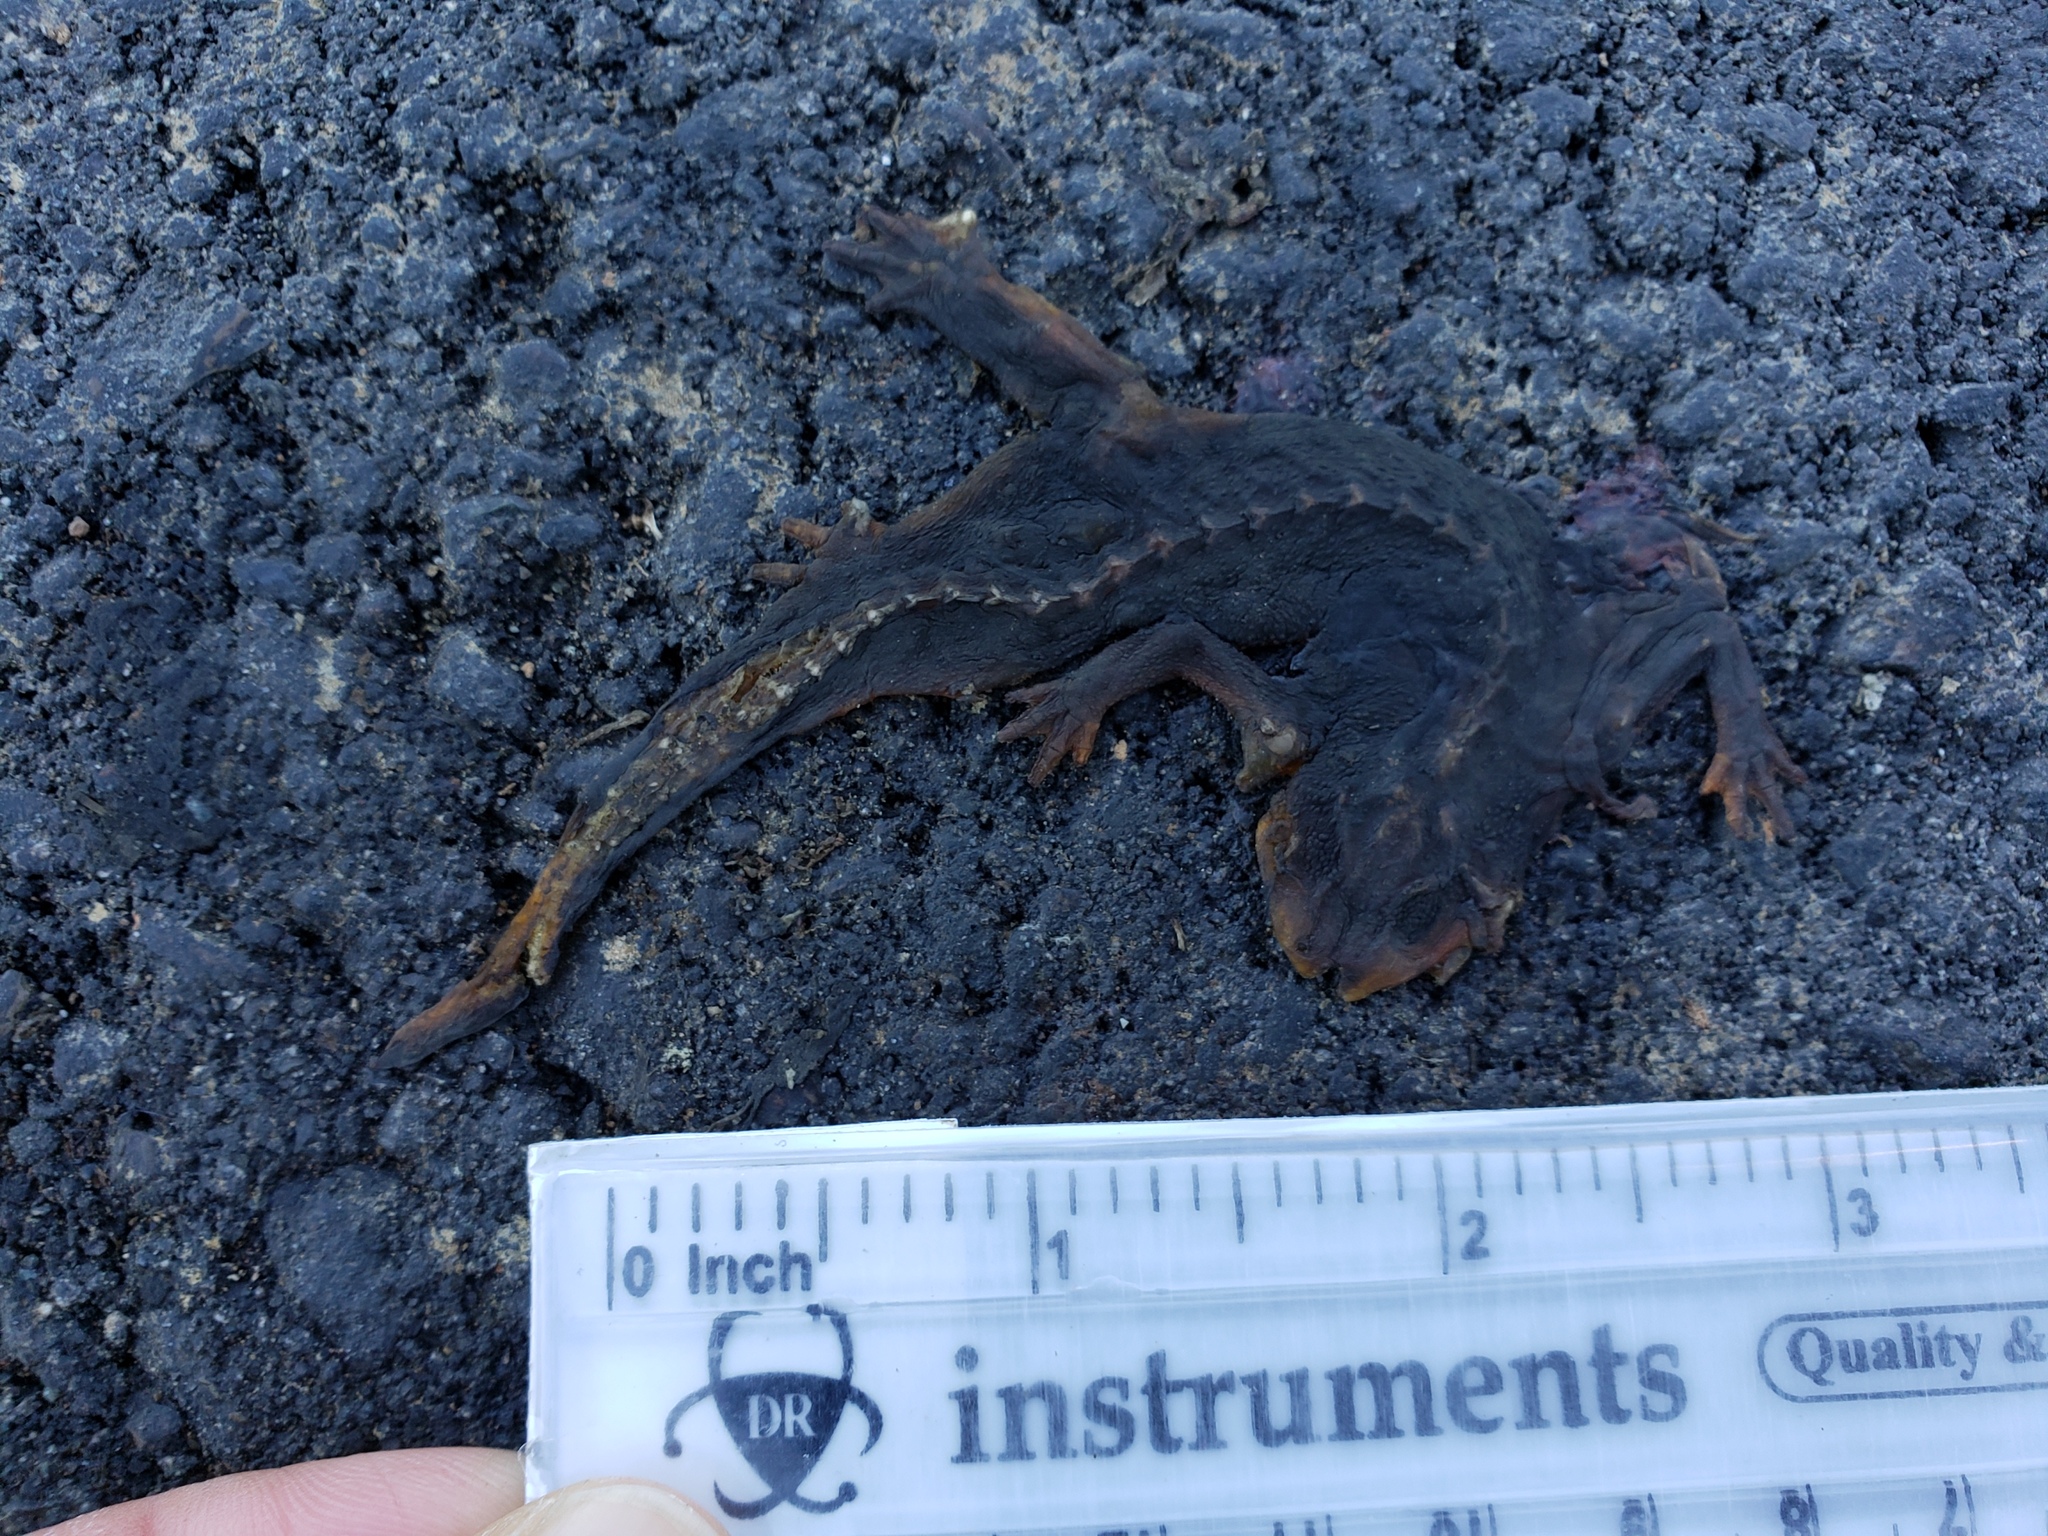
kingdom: Animalia
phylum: Chordata
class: Amphibia
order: Caudata
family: Salamandridae
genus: Taricha
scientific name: Taricha
